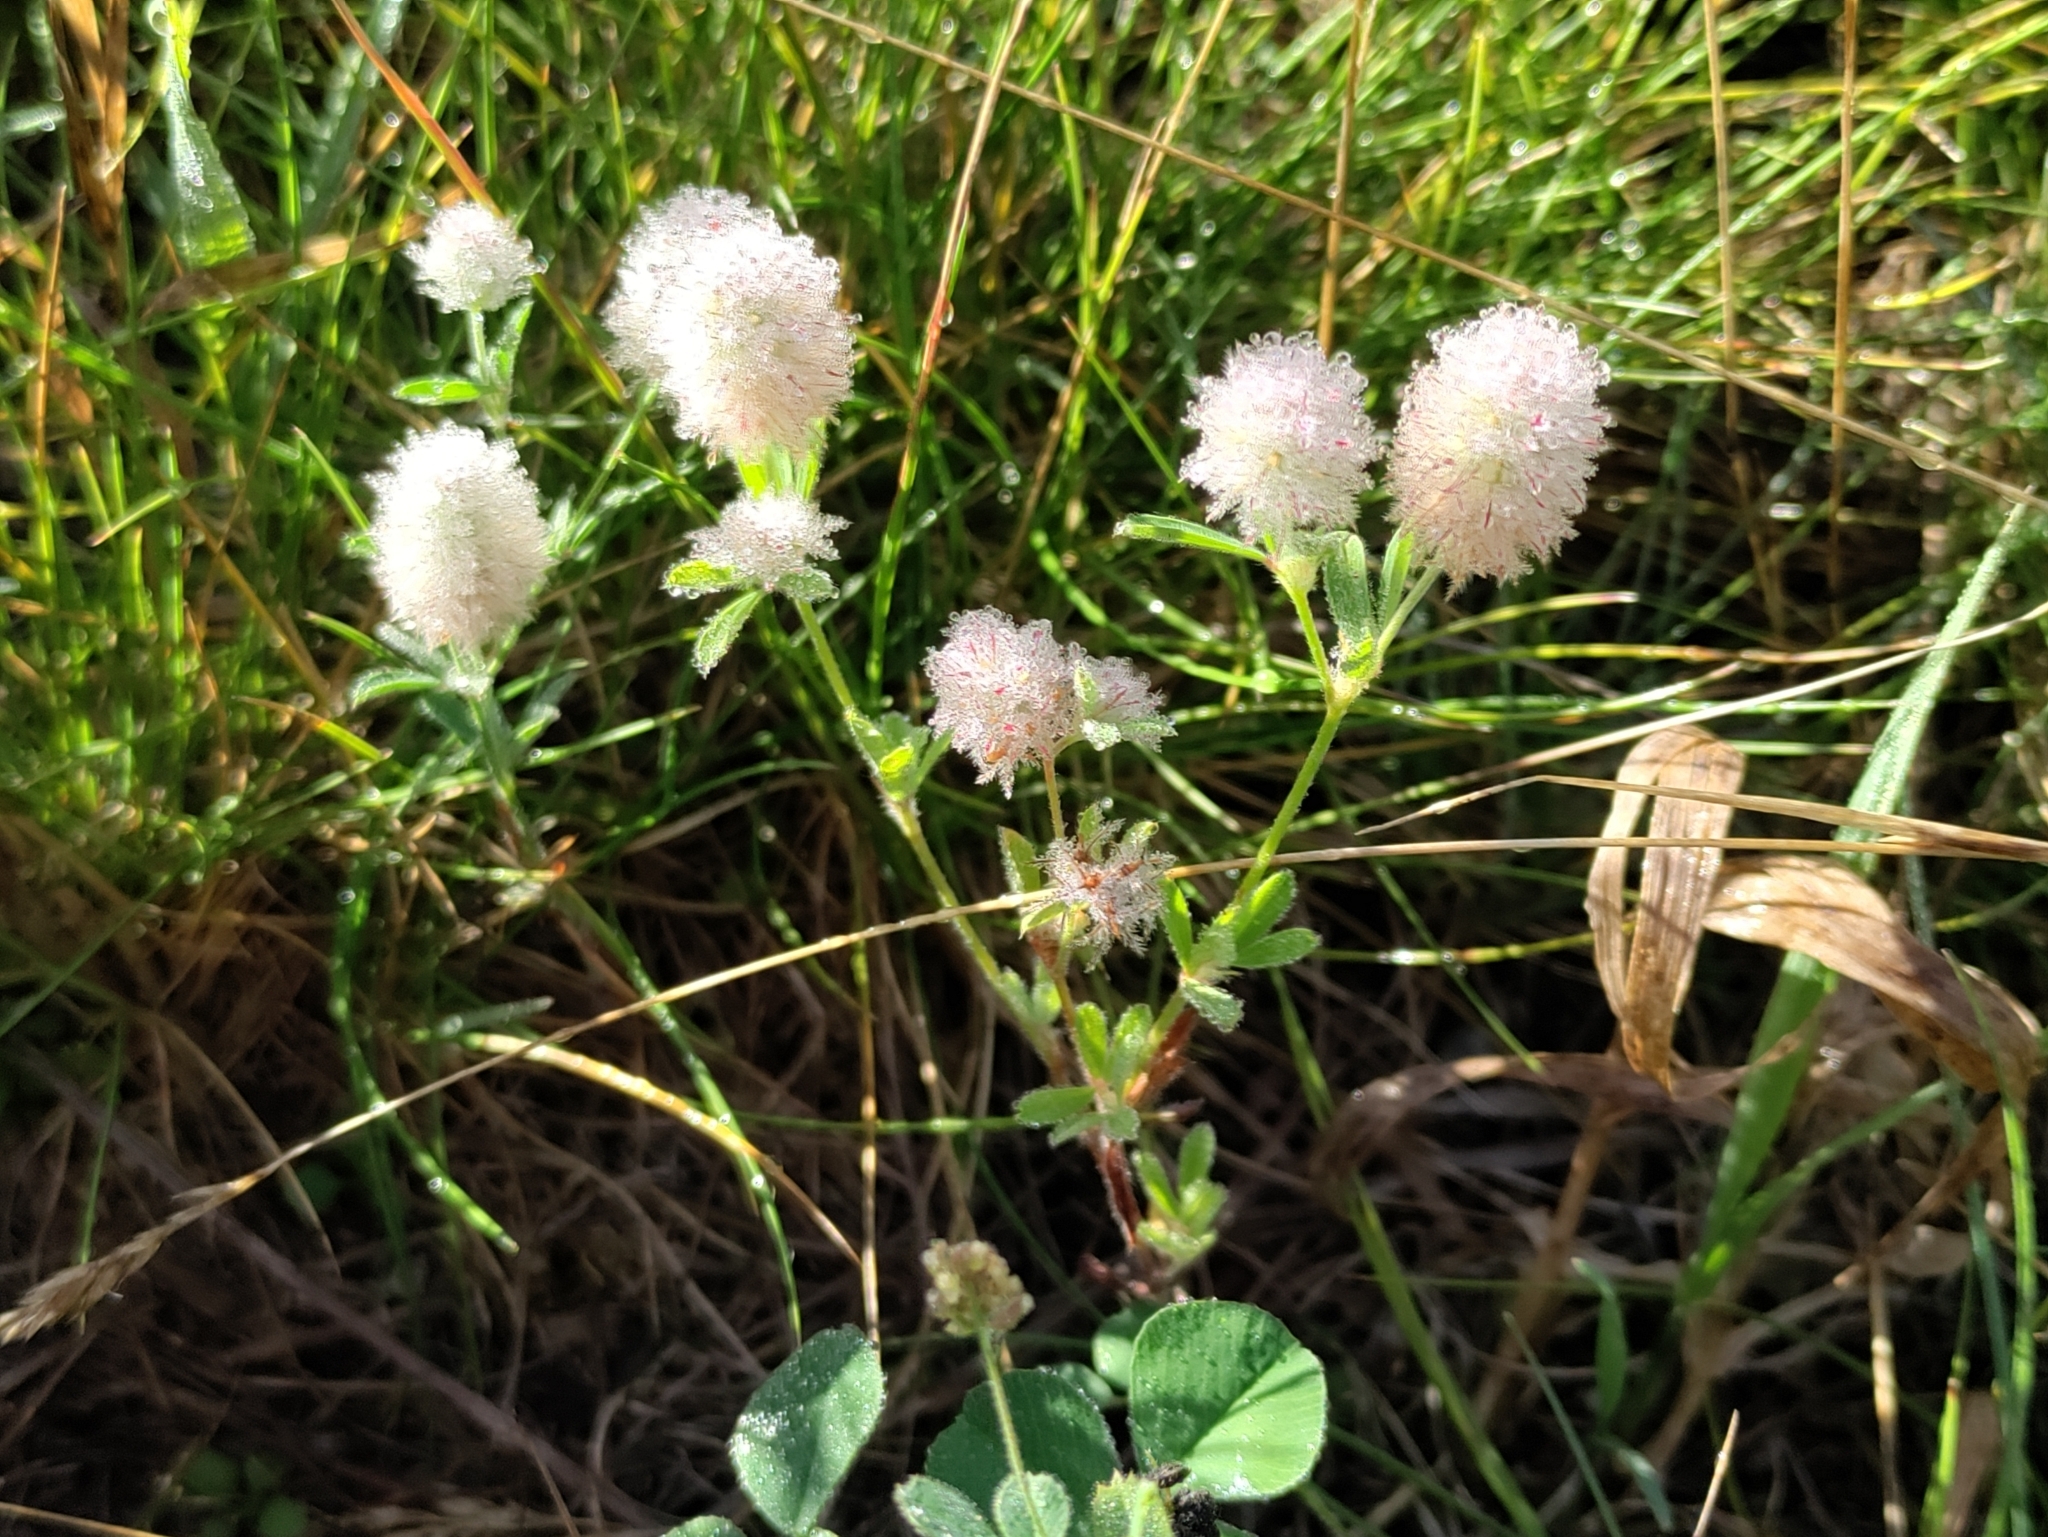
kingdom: Plantae
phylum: Tracheophyta
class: Magnoliopsida
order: Fabales
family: Fabaceae
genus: Trifolium
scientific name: Trifolium arvense
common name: Hare's-foot clover
